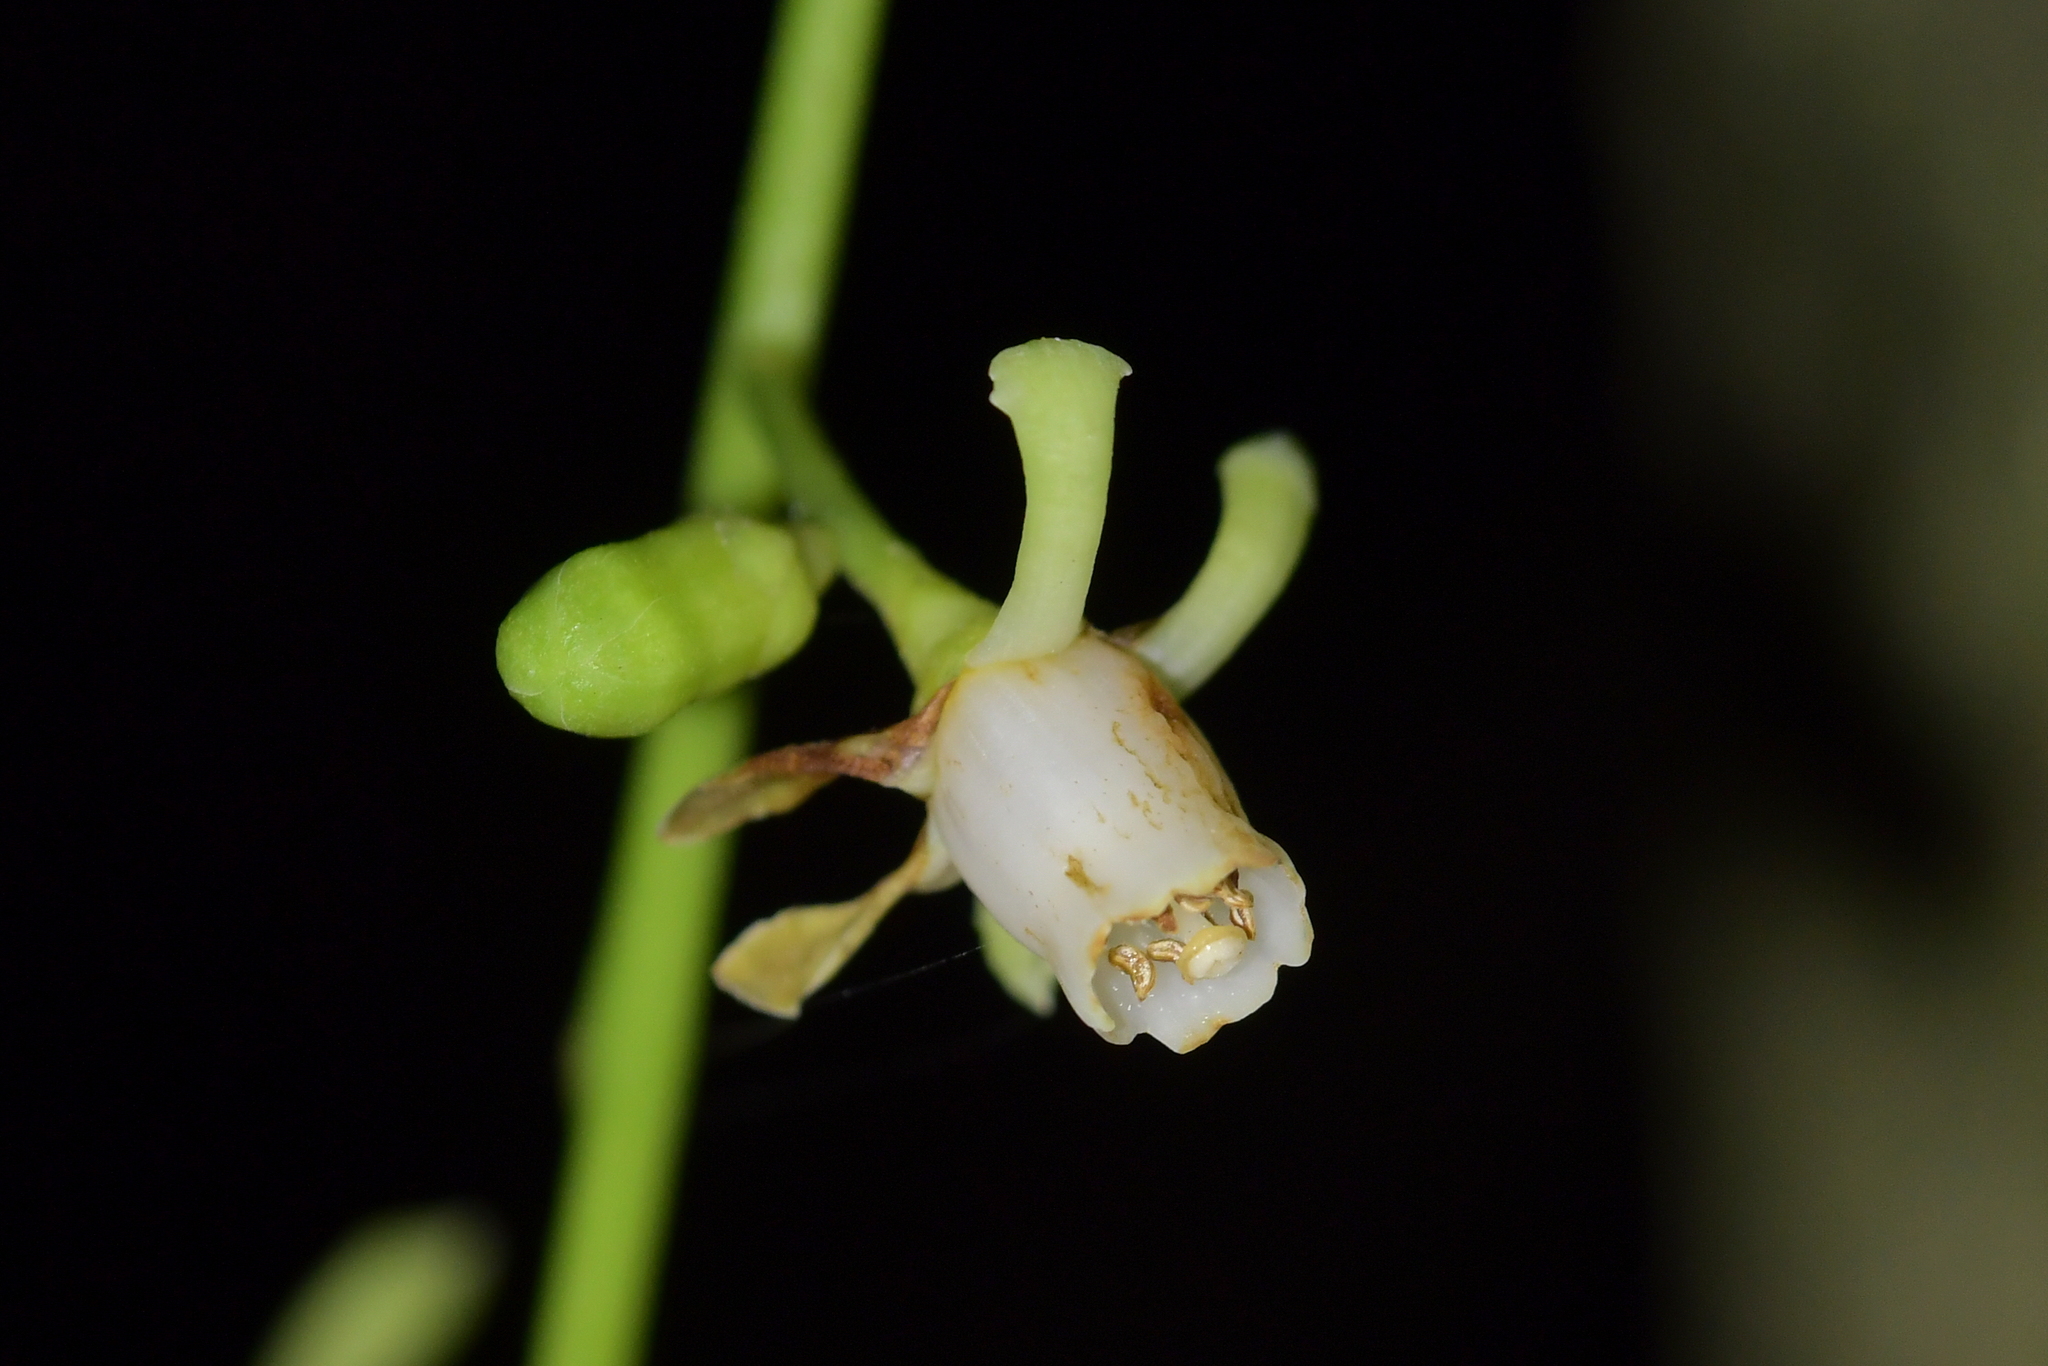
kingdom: Plantae
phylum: Tracheophyta
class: Magnoliopsida
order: Sapindales
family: Meliaceae
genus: Didymocheton
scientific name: Didymocheton spectabilis
